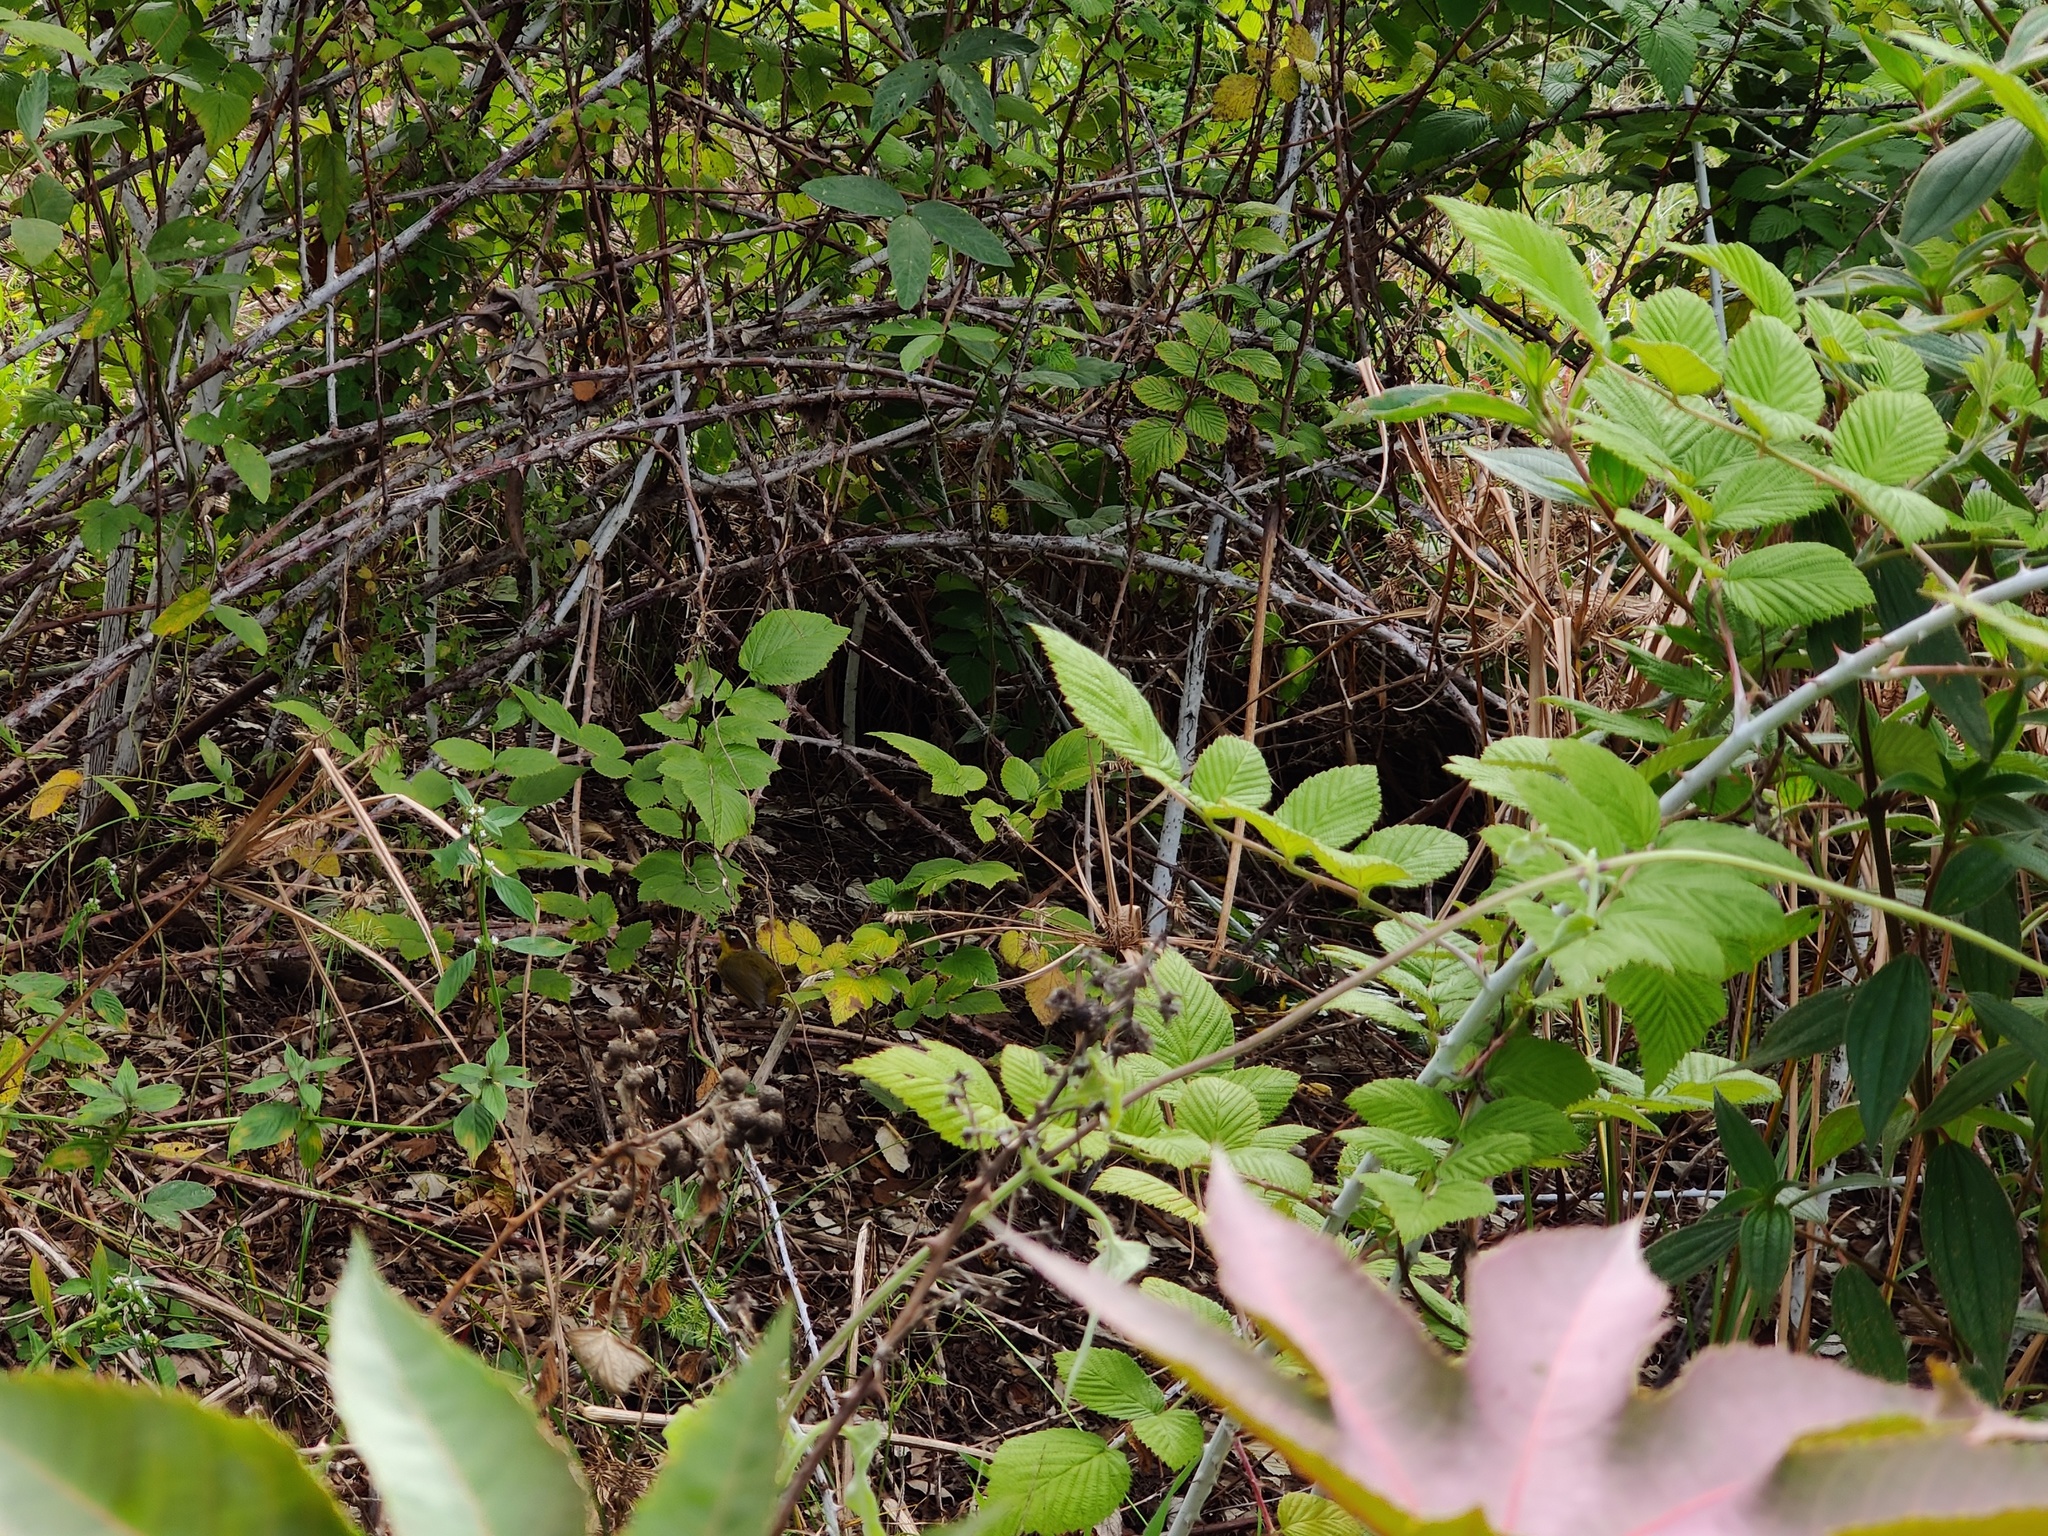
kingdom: Animalia
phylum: Chordata
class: Aves
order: Passeriformes
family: Parulidae
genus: Basileuterus
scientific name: Basileuterus rufifrons
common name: Rufous-capped warbler
